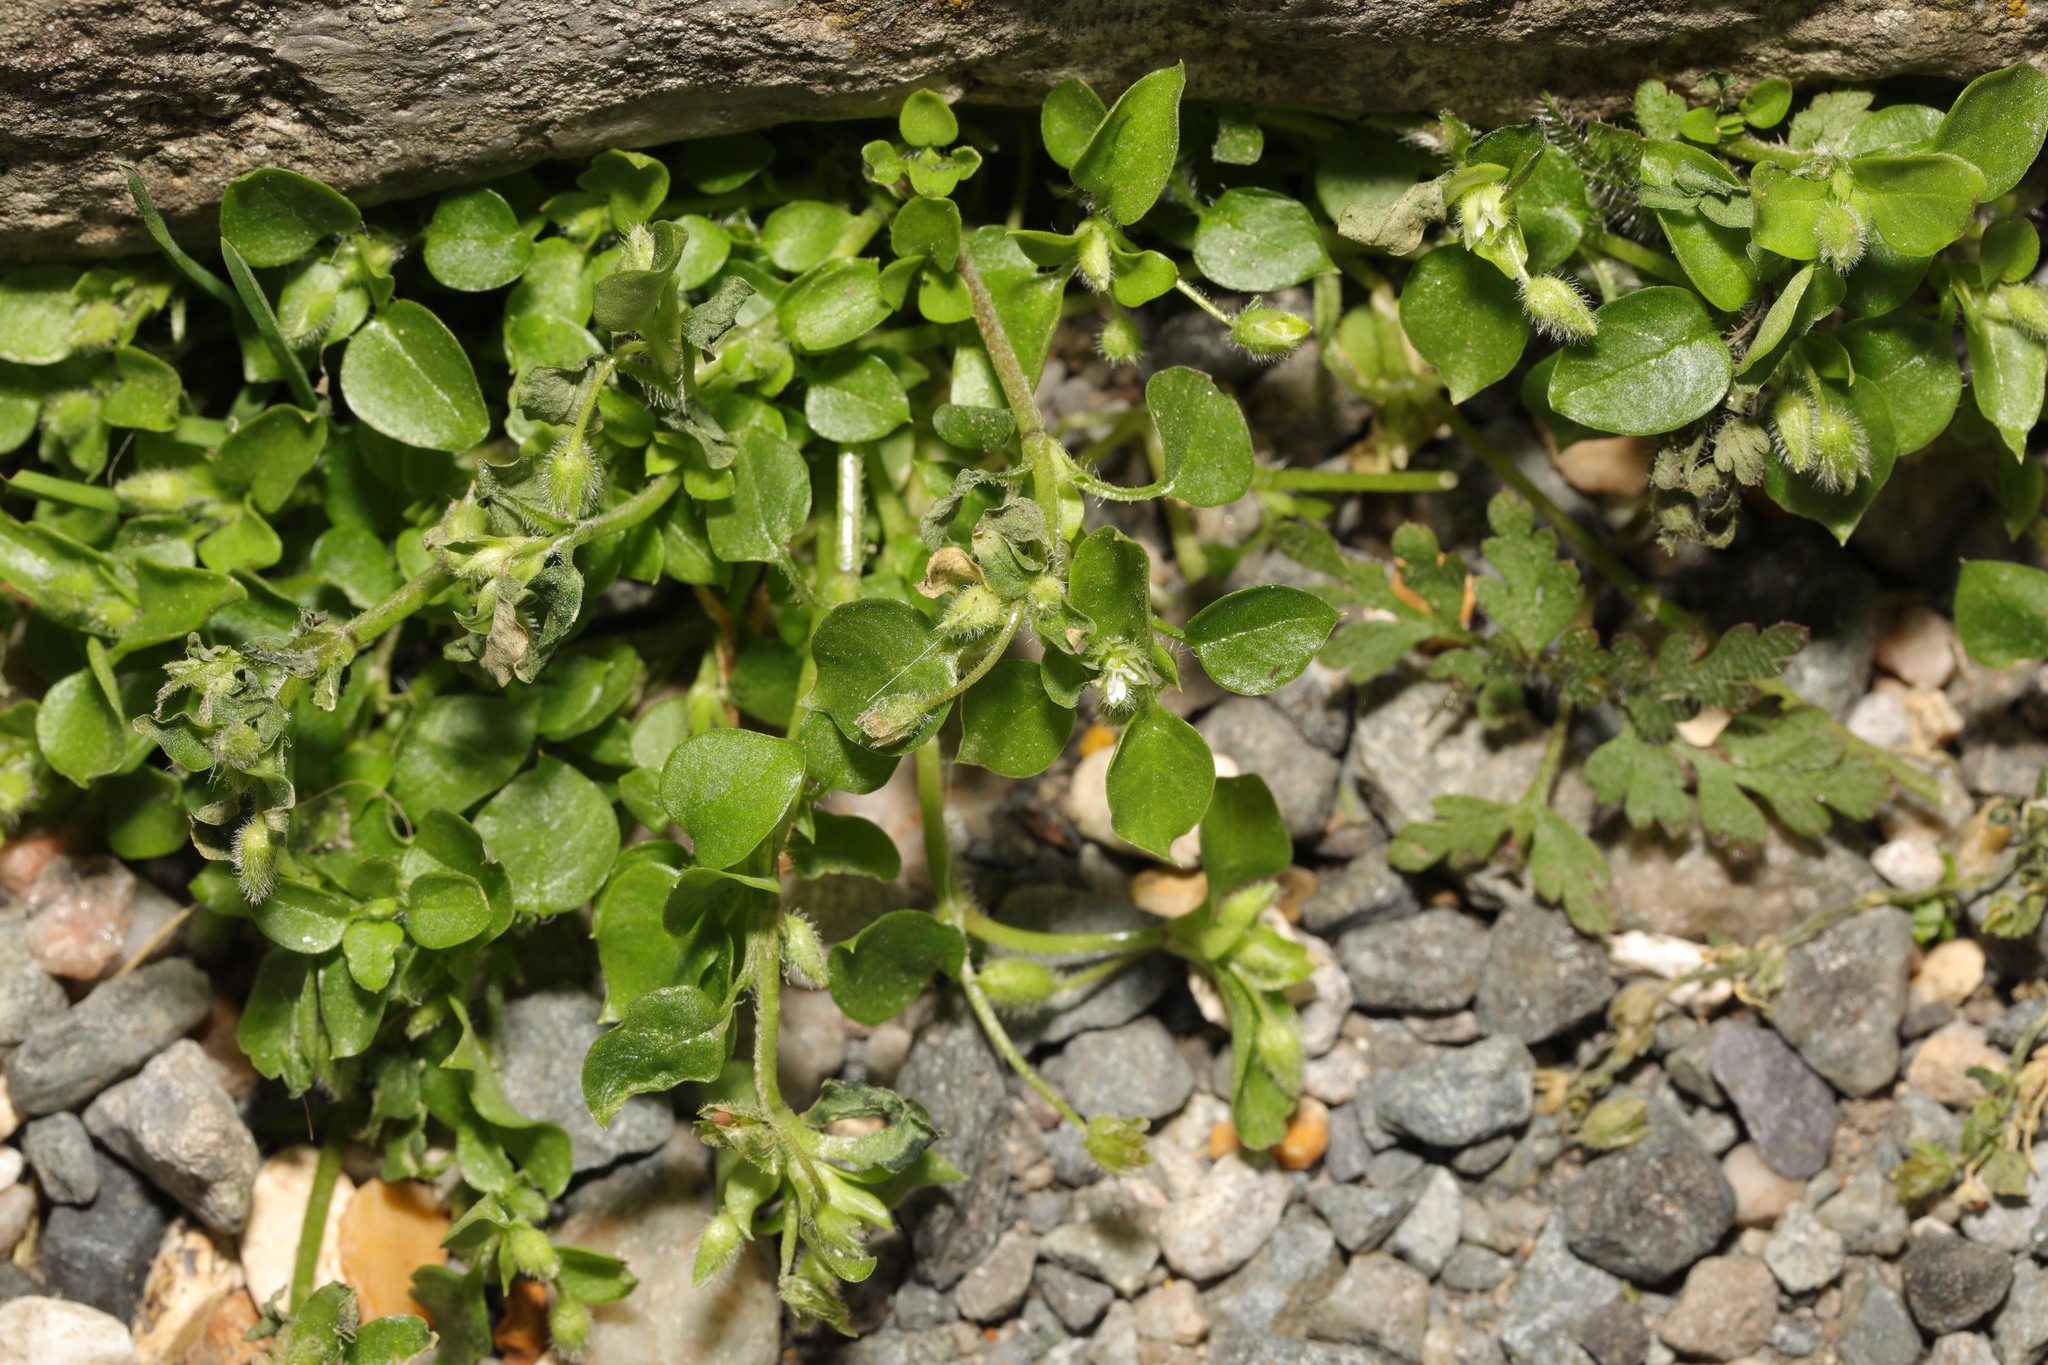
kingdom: Plantae
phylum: Tracheophyta
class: Magnoliopsida
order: Caryophyllales
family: Caryophyllaceae
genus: Stellaria
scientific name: Stellaria media
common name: Common chickweed
